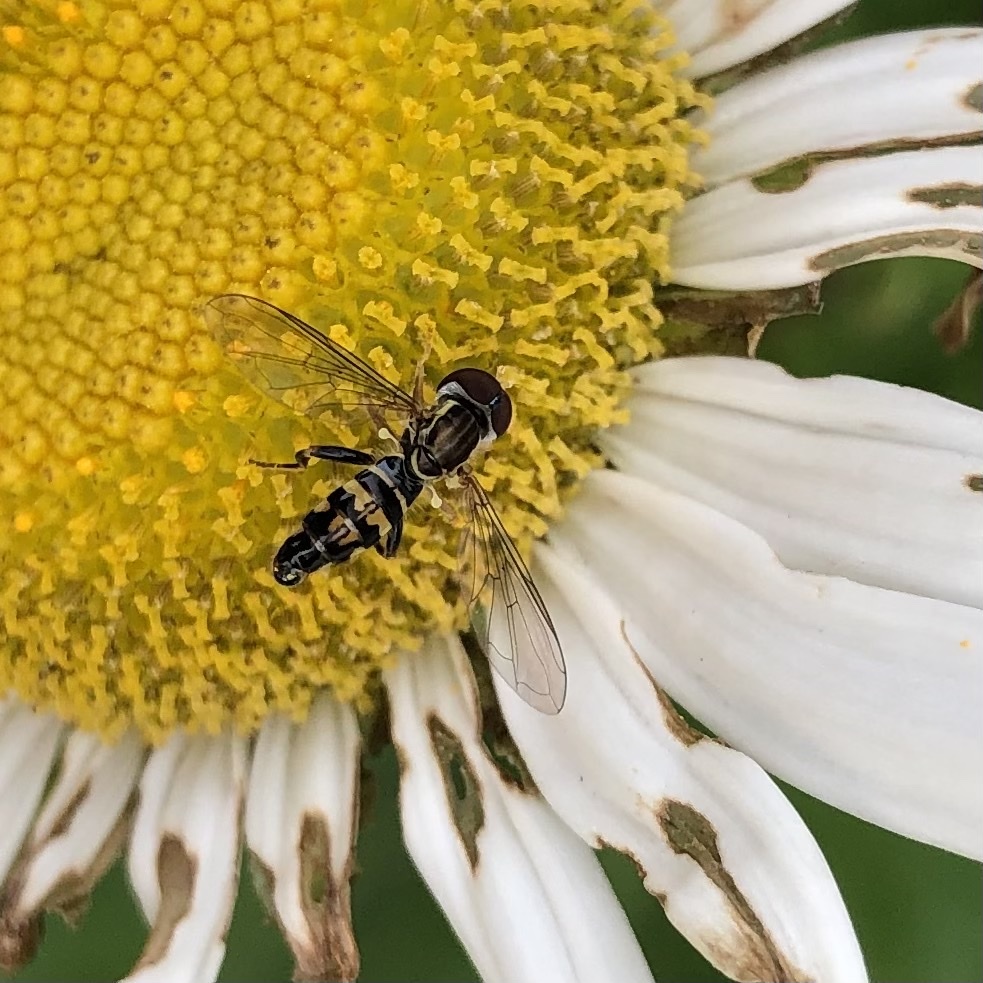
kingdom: Animalia
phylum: Arthropoda
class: Insecta
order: Diptera
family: Syrphidae
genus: Toxomerus
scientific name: Toxomerus geminatus
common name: Eastern calligrapher
